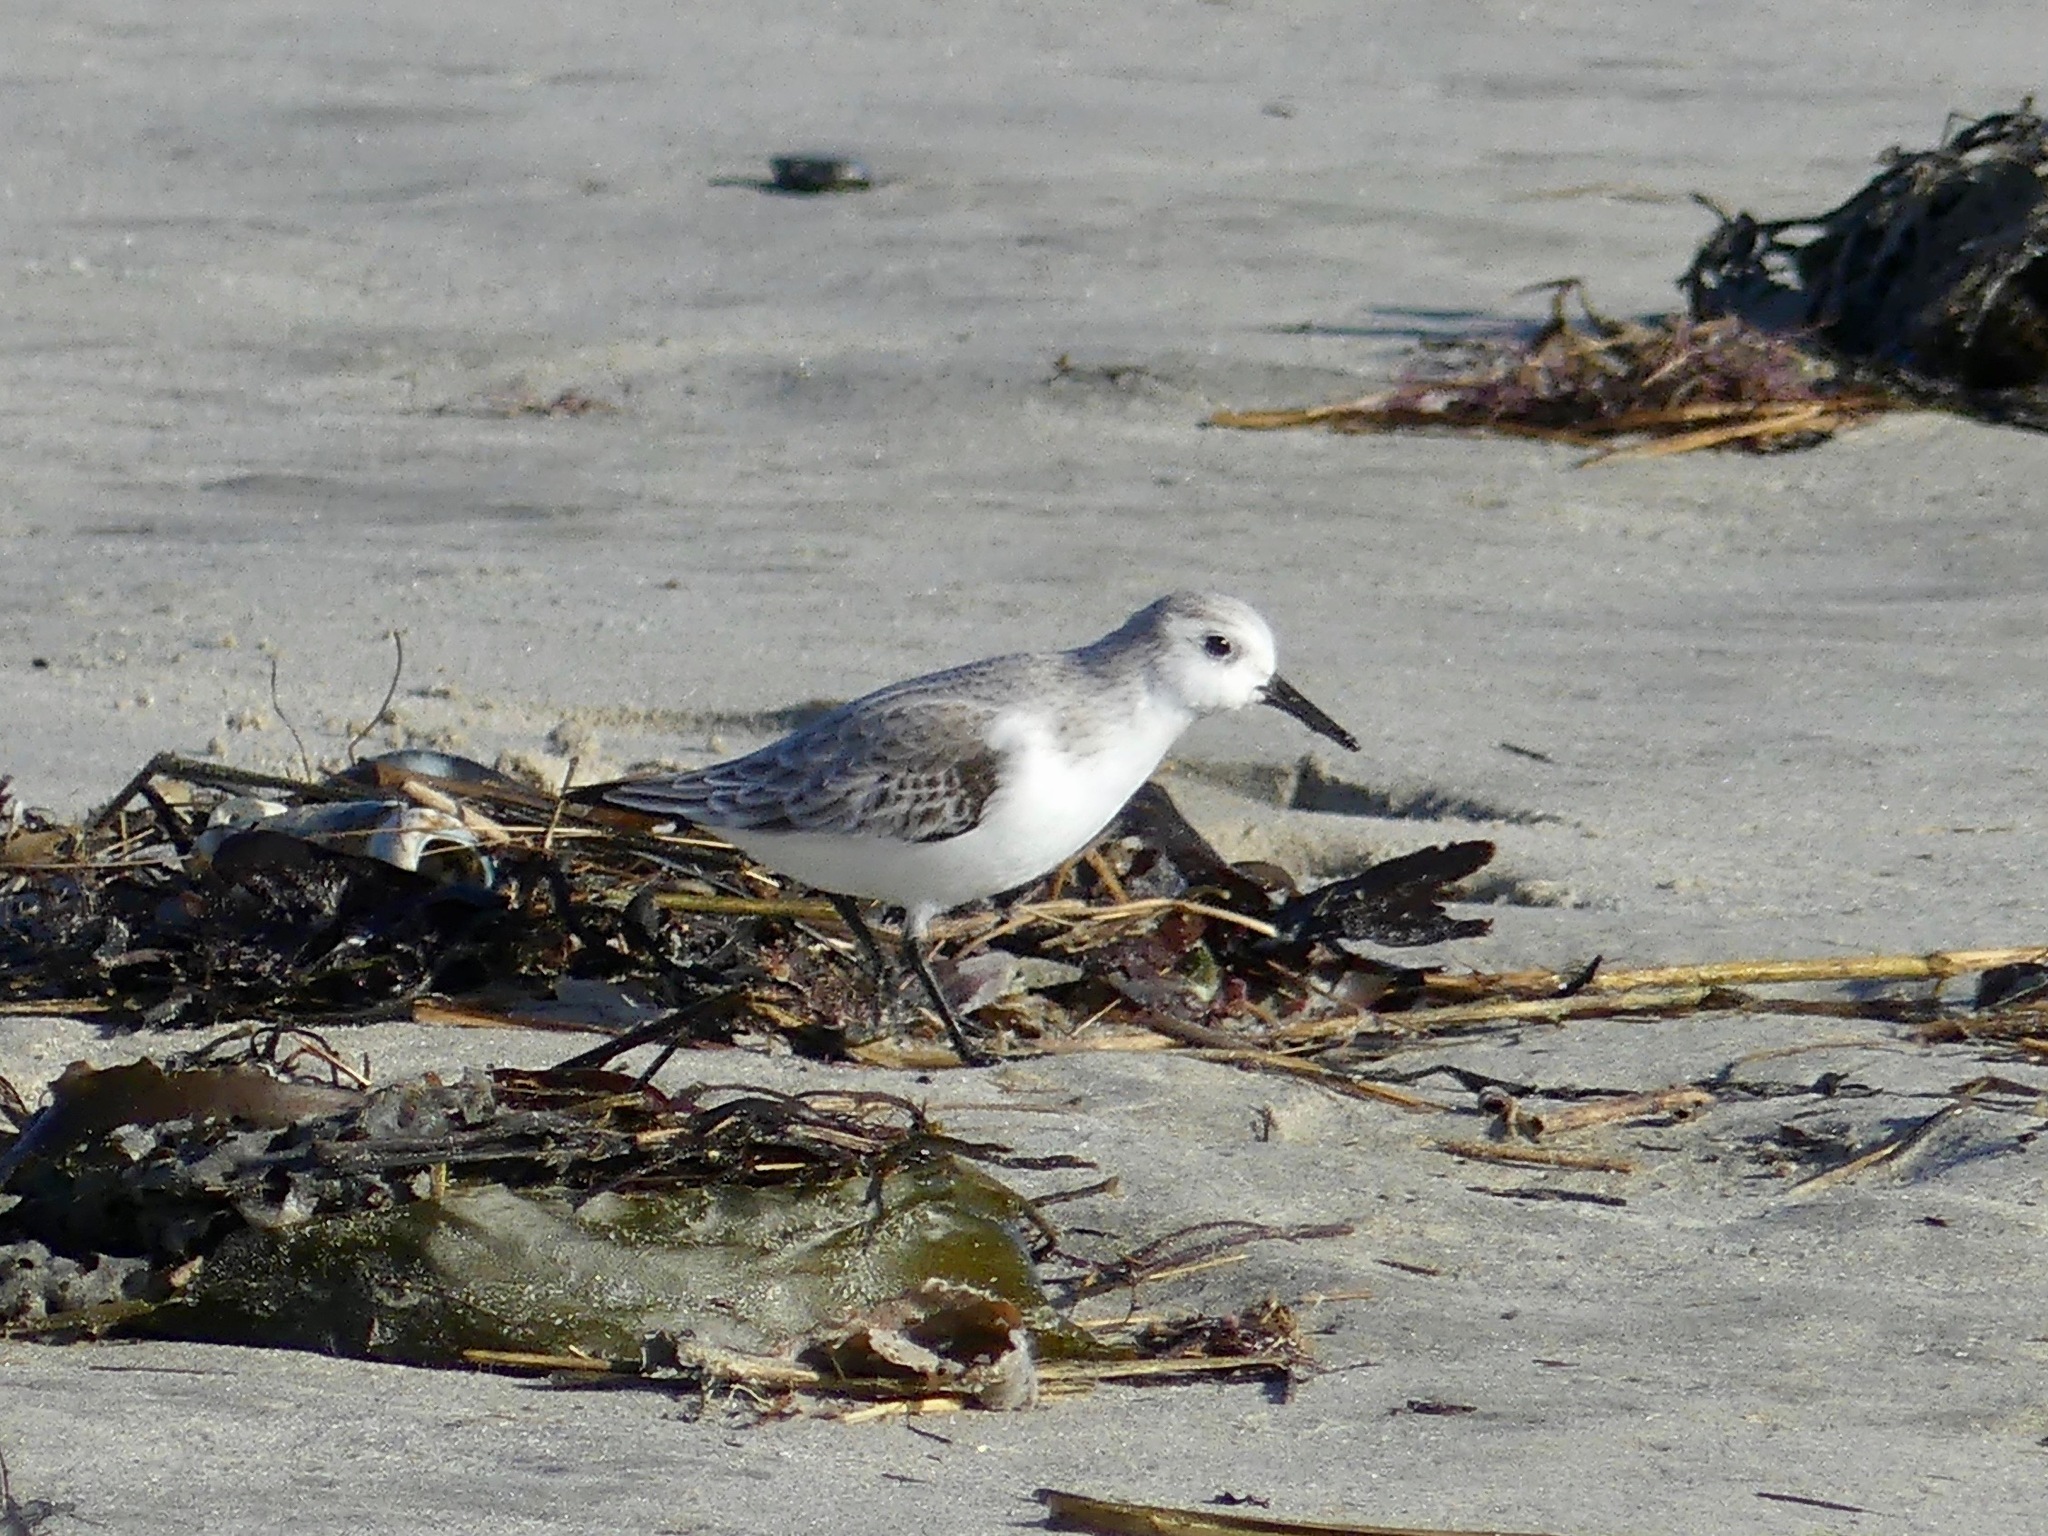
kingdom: Animalia
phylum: Chordata
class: Aves
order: Charadriiformes
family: Scolopacidae
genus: Calidris
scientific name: Calidris alba
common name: Sanderling
